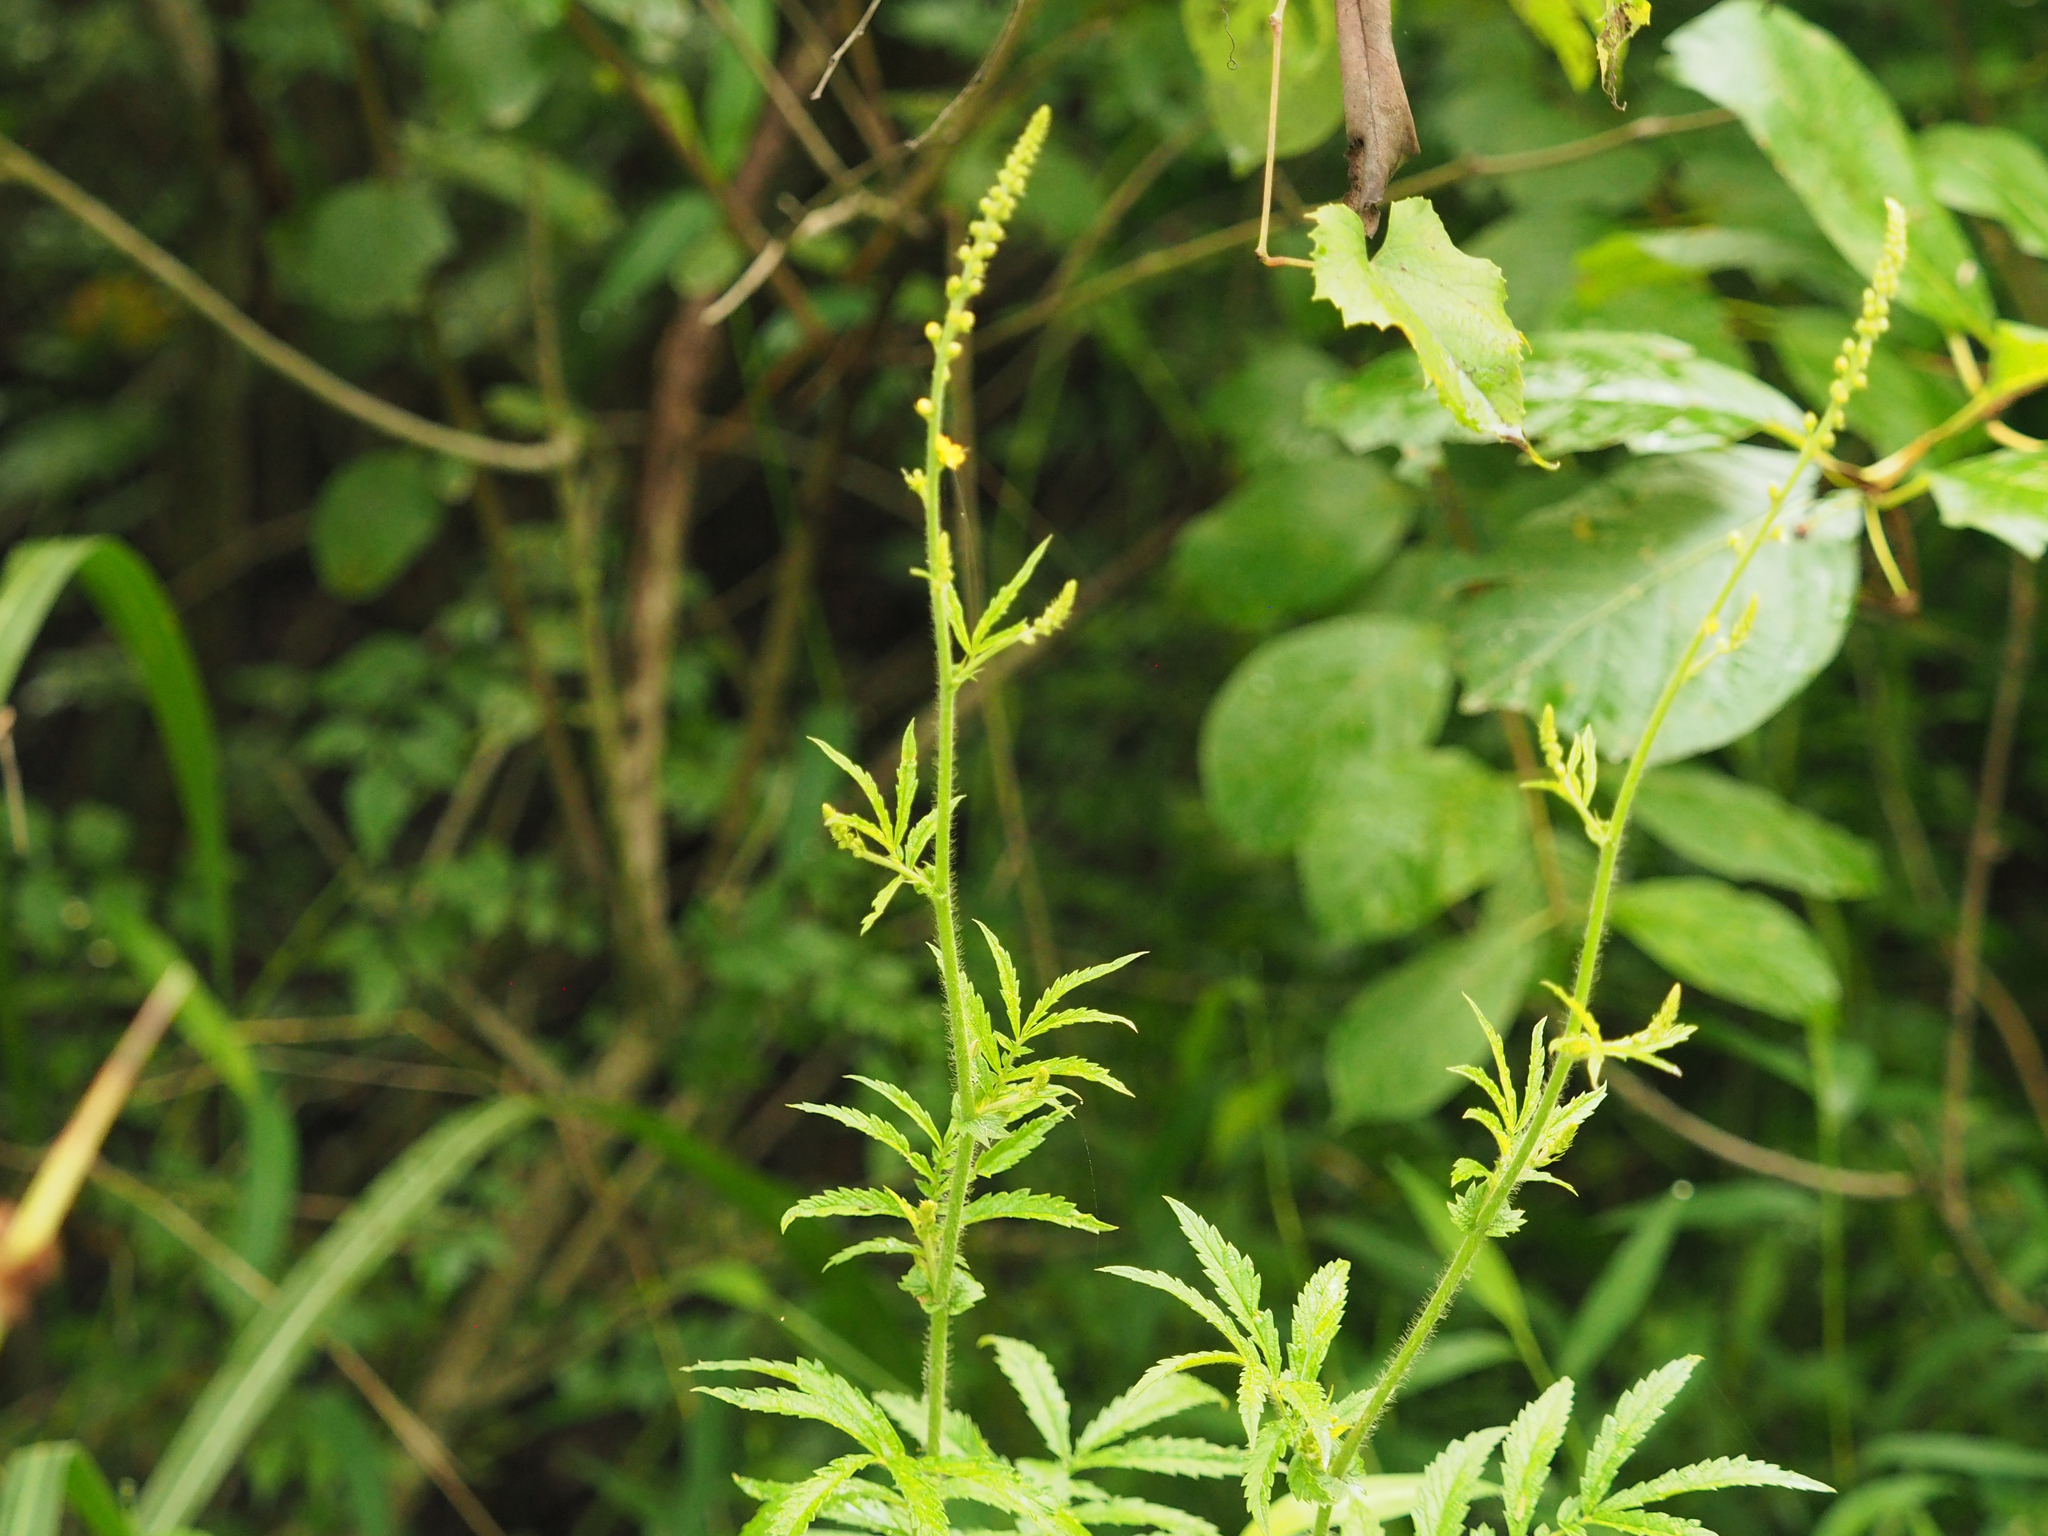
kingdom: Plantae
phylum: Tracheophyta
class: Magnoliopsida
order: Rosales
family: Rosaceae
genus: Agrimonia
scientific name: Agrimonia parviflora
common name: Harvest-lice
